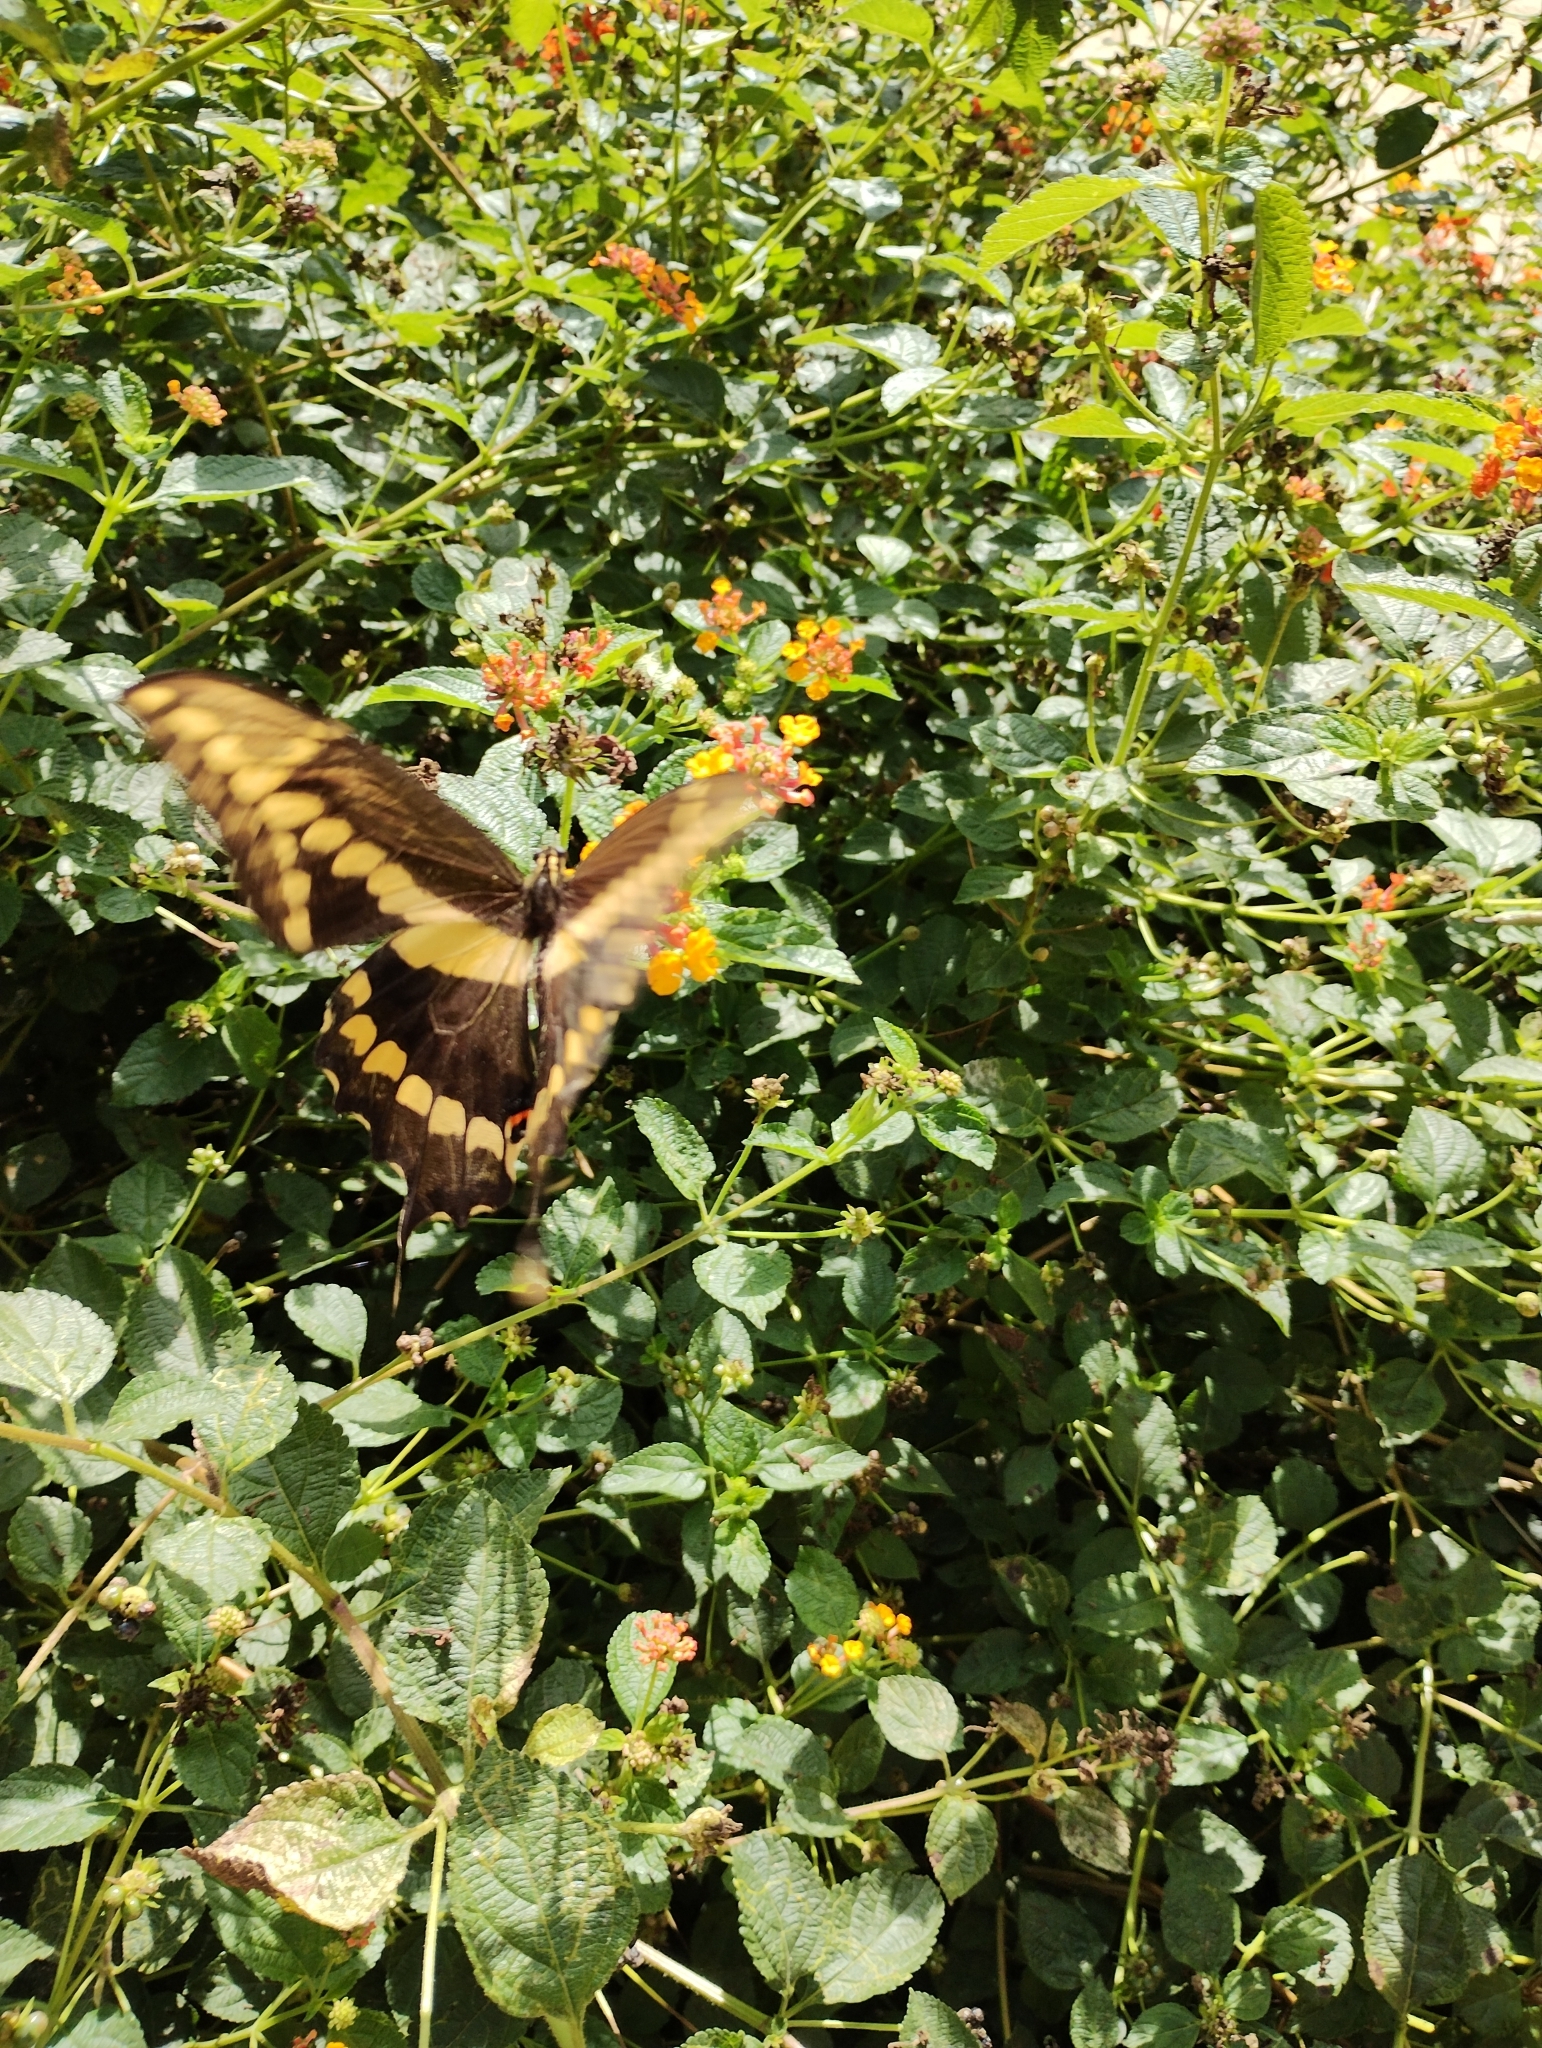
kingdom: Animalia
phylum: Arthropoda
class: Insecta
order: Lepidoptera
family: Papilionidae
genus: Papilio
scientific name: Papilio rumiko
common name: Western giant swallowtail
